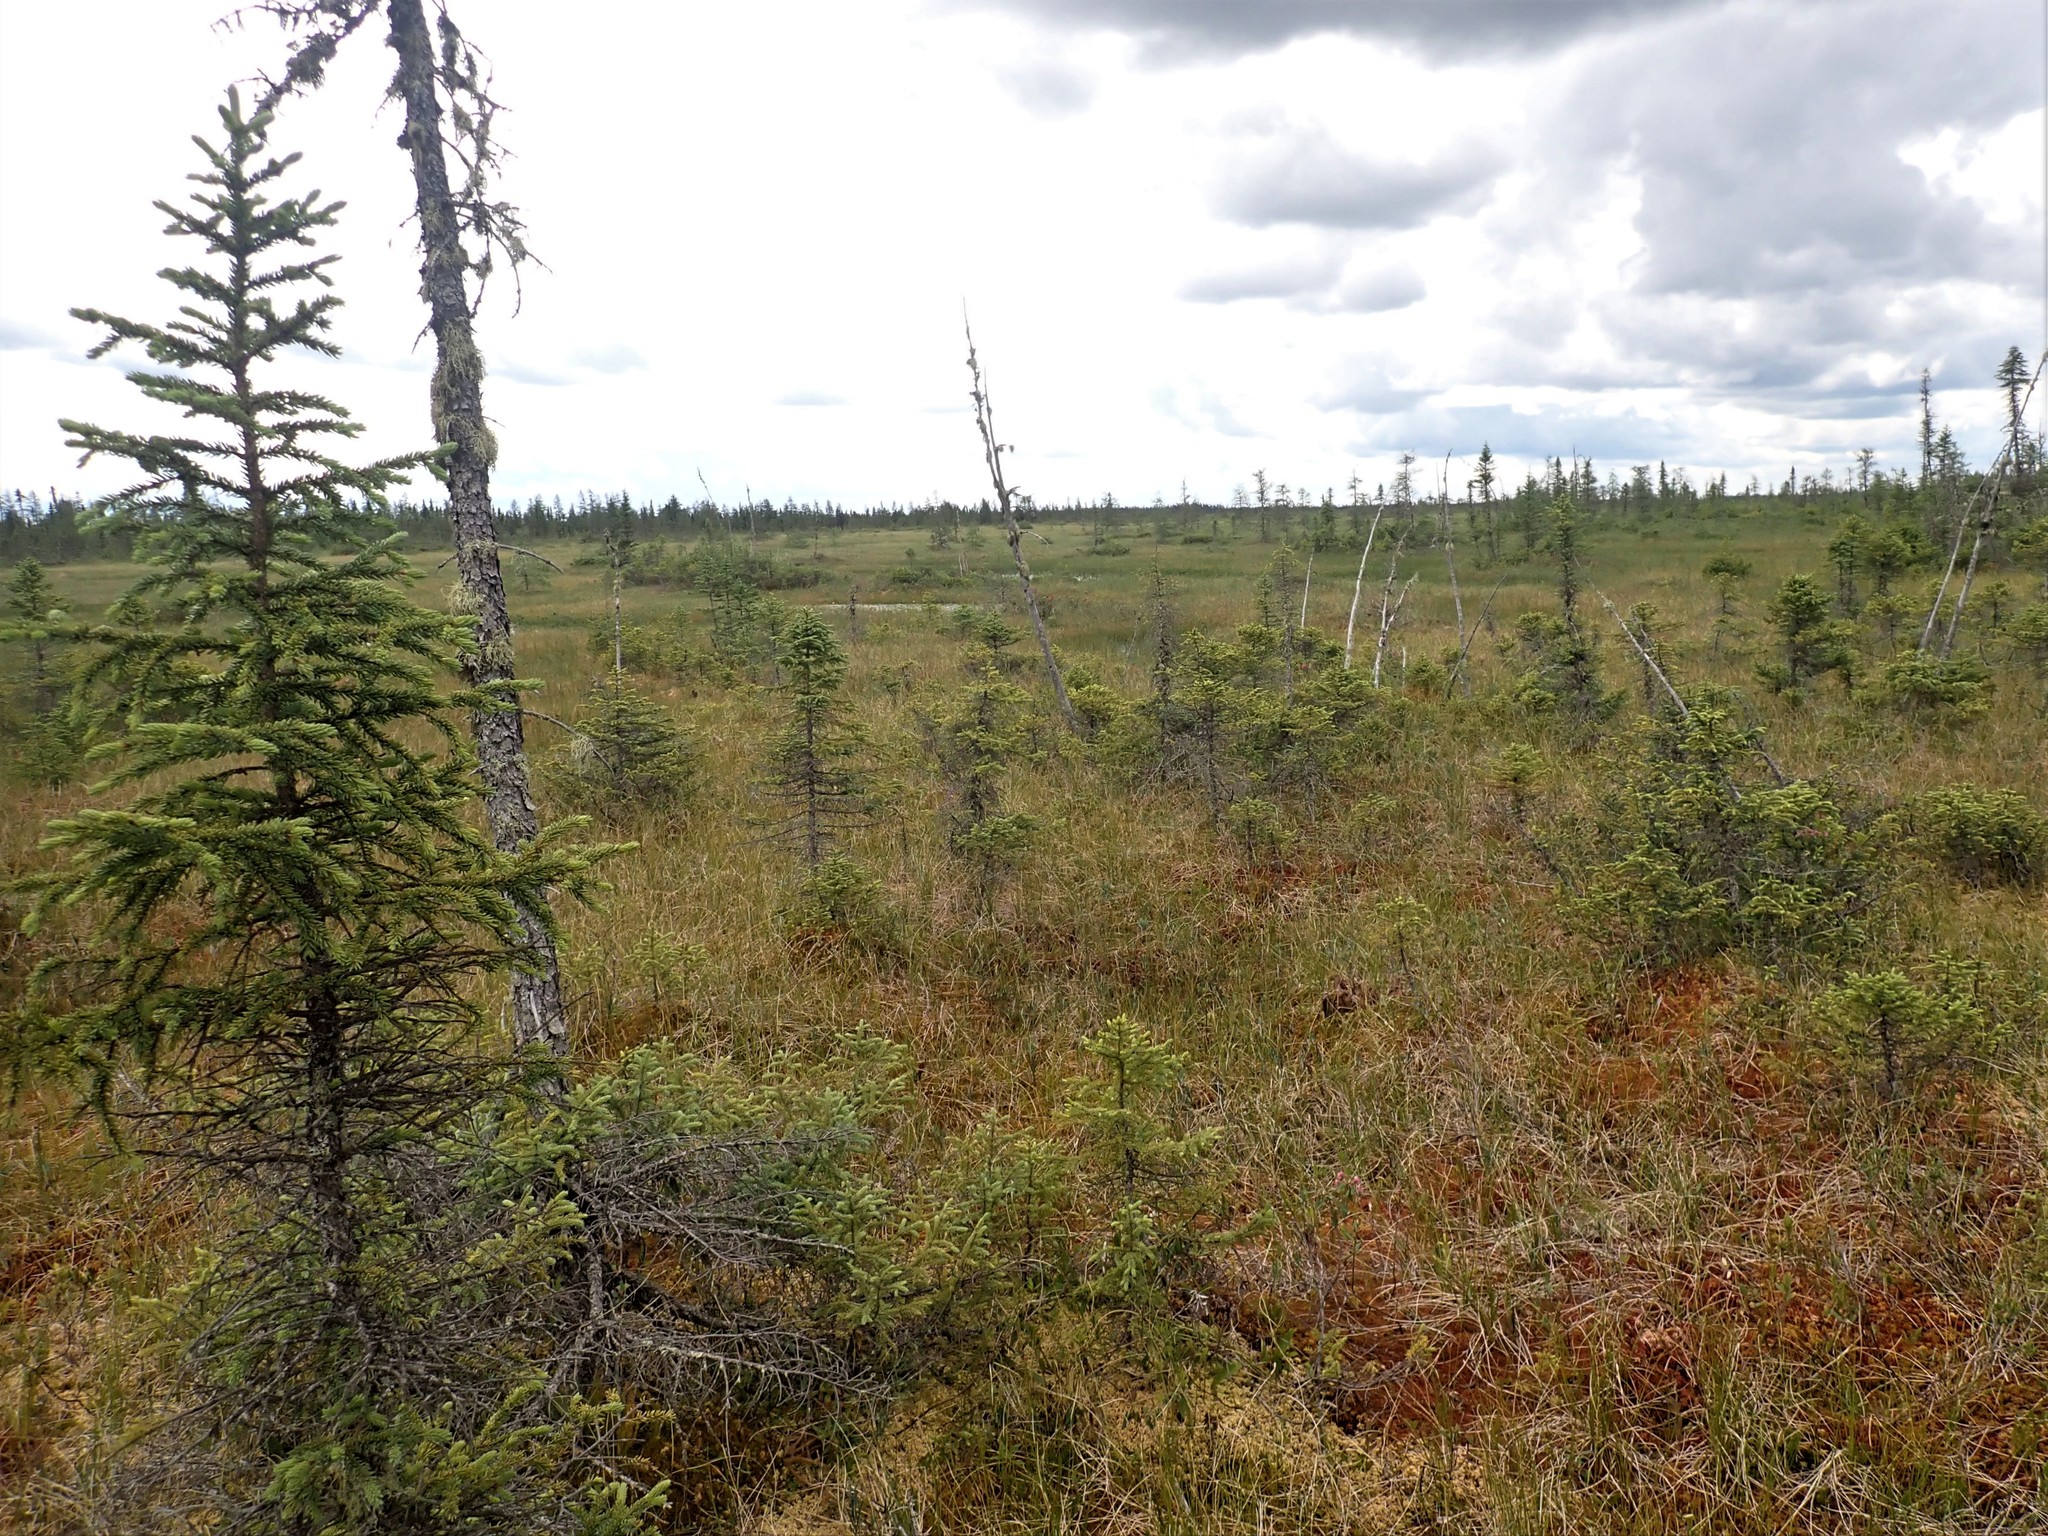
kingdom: Plantae
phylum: Tracheophyta
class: Pinopsida
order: Pinales
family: Pinaceae
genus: Picea
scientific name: Picea mariana
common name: Black spruce
